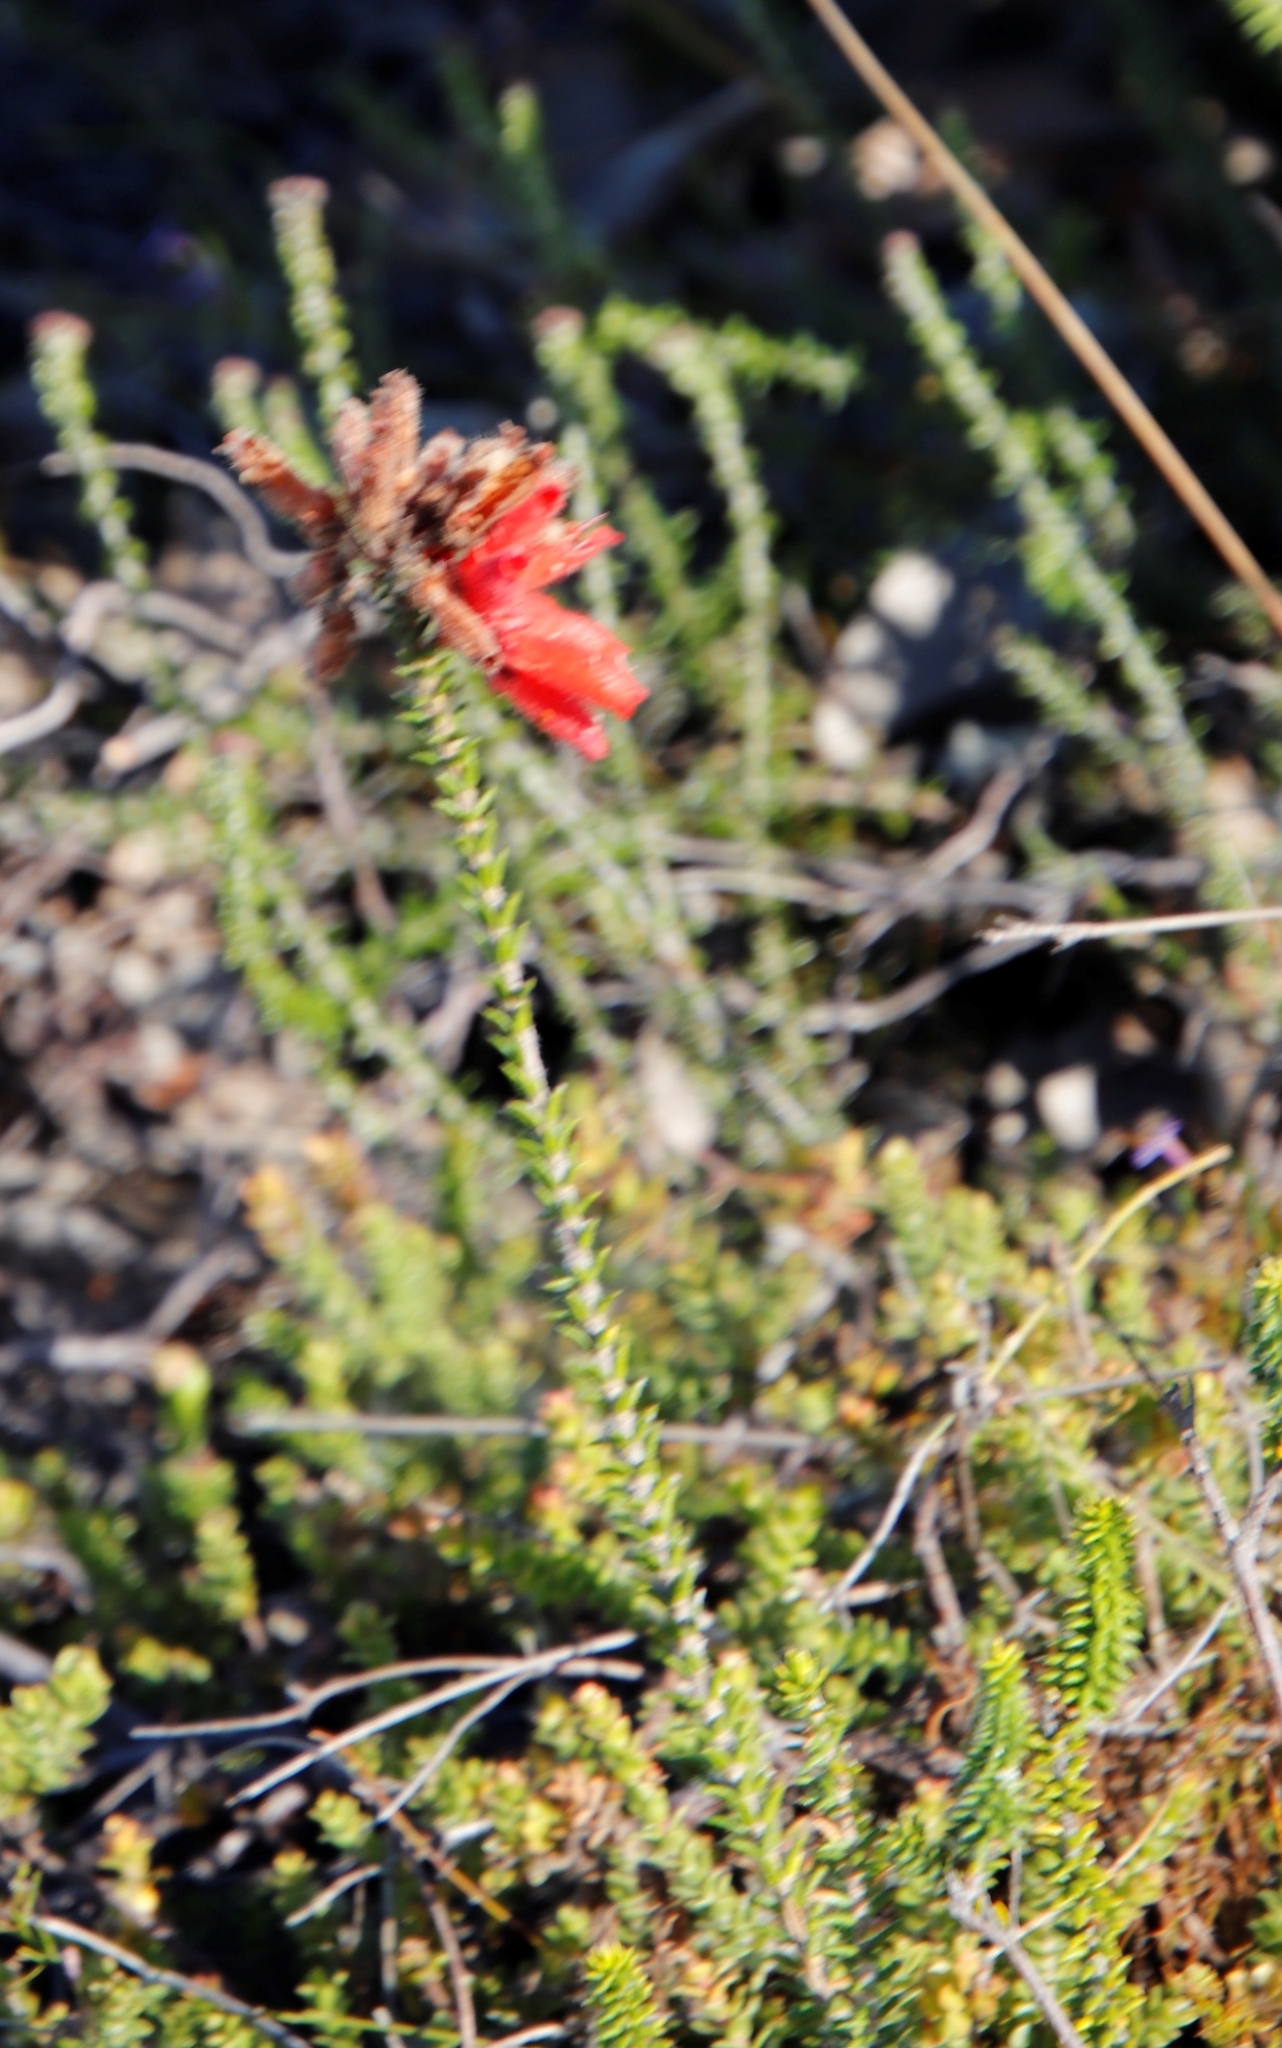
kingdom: Plantae
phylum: Tracheophyta
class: Magnoliopsida
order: Ericales
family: Ericaceae
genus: Erica
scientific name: Erica cerinthoides
